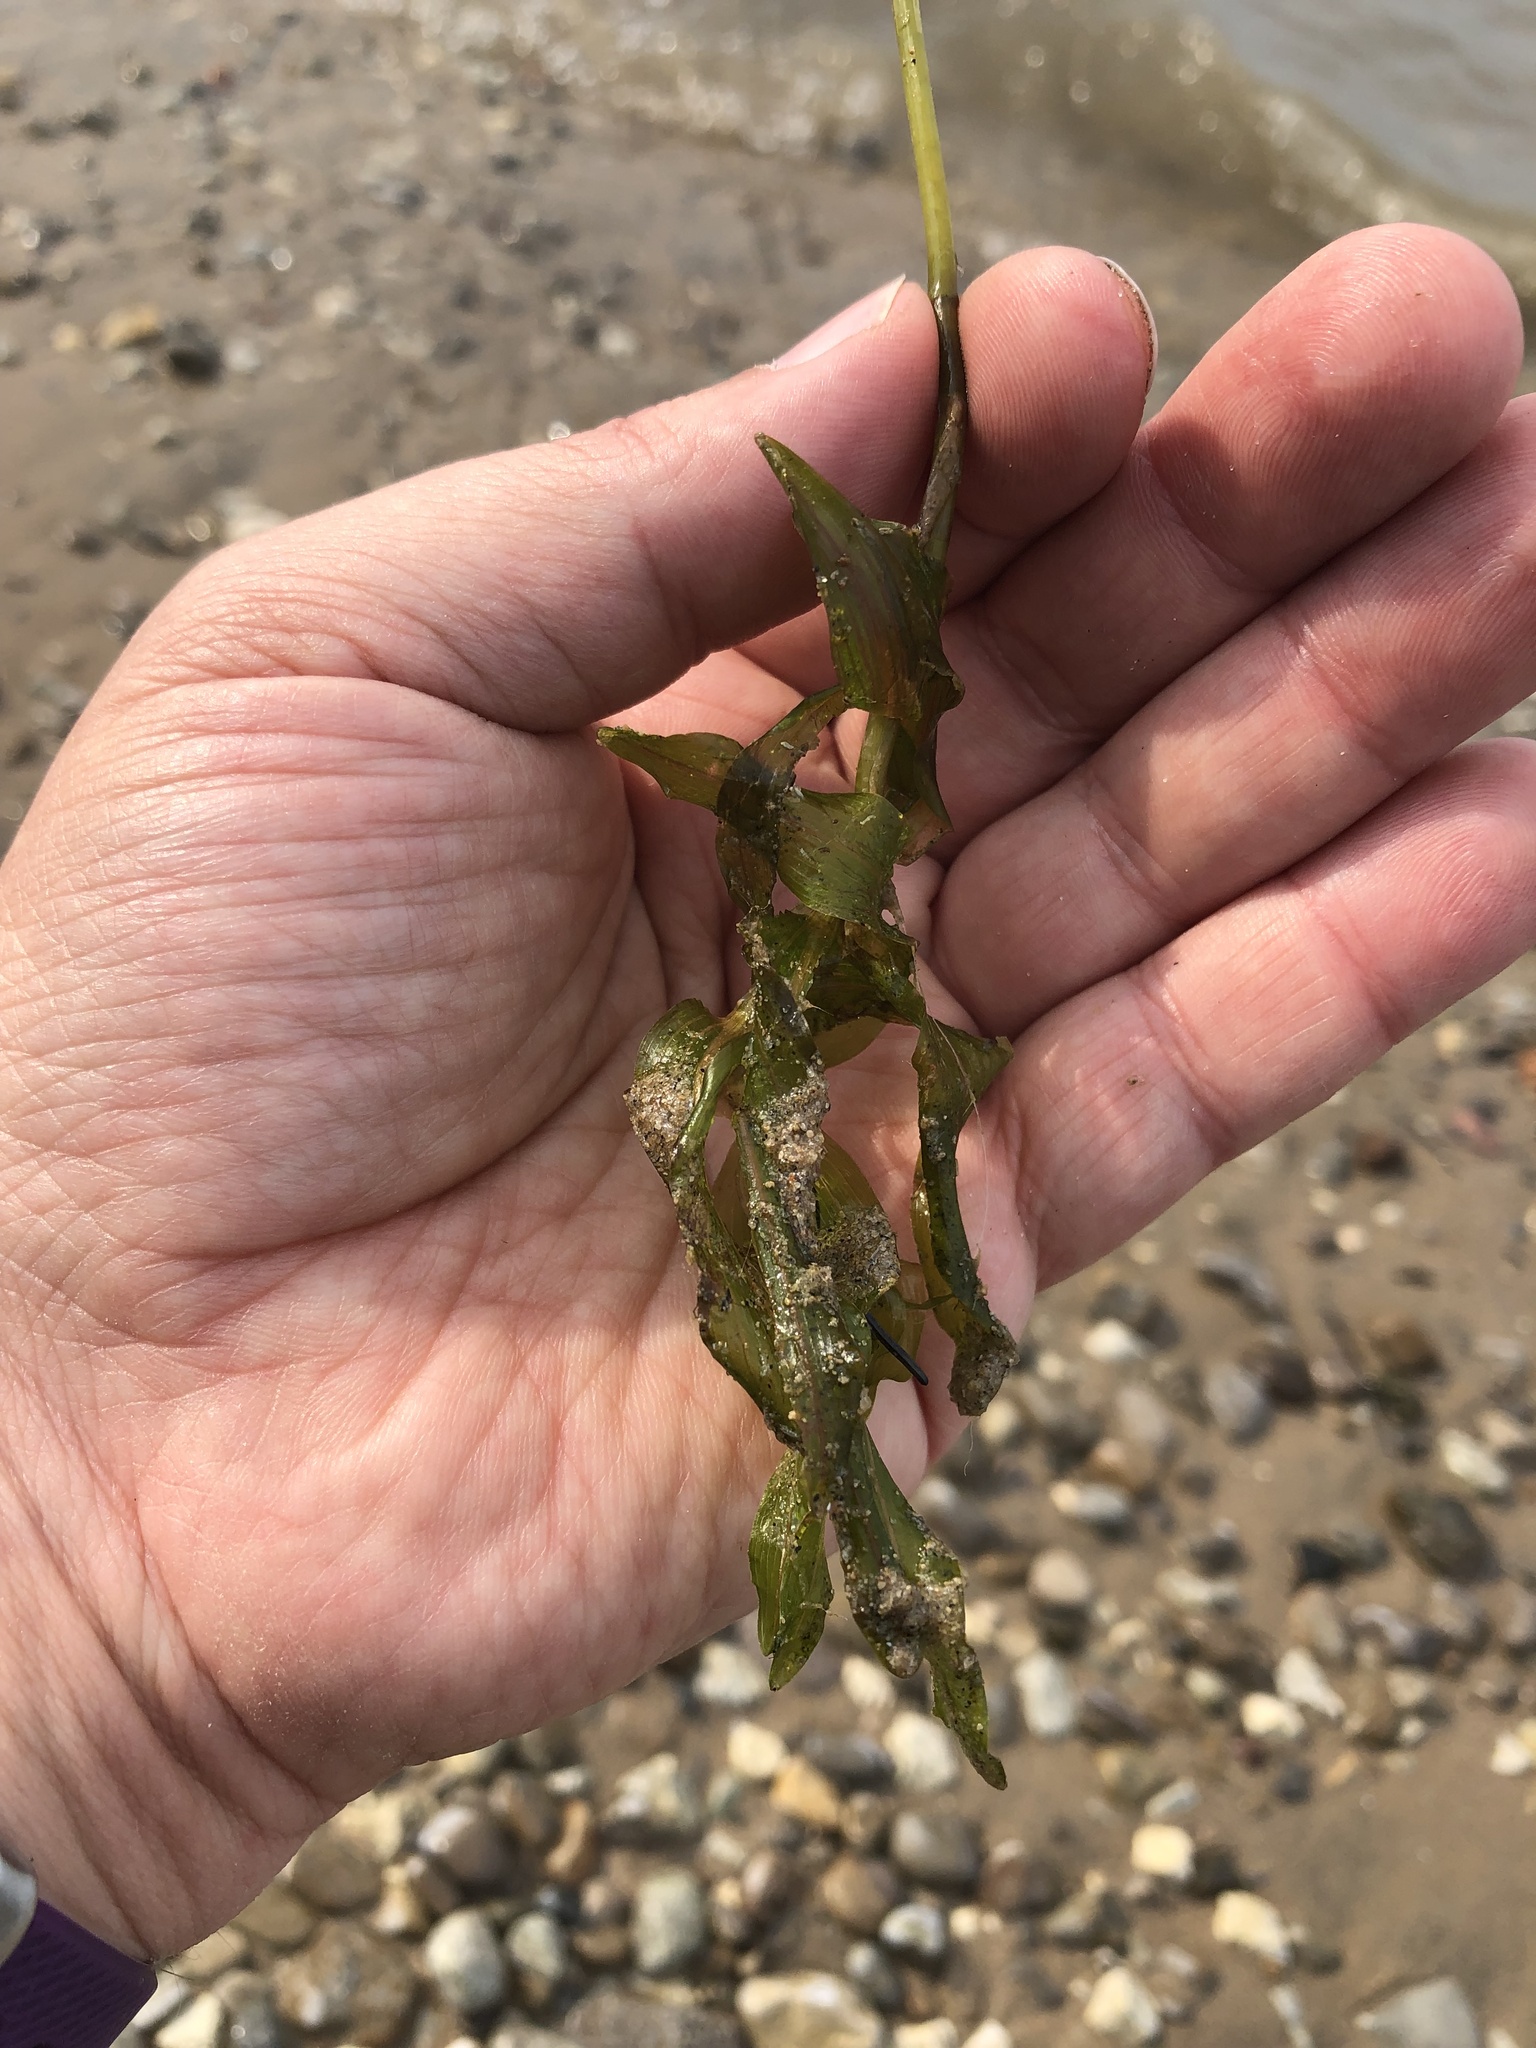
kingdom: Plantae
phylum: Tracheophyta
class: Liliopsida
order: Alismatales
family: Potamogetonaceae
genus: Potamogeton
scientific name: Potamogeton richardsonii
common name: Richardson's pondweed
